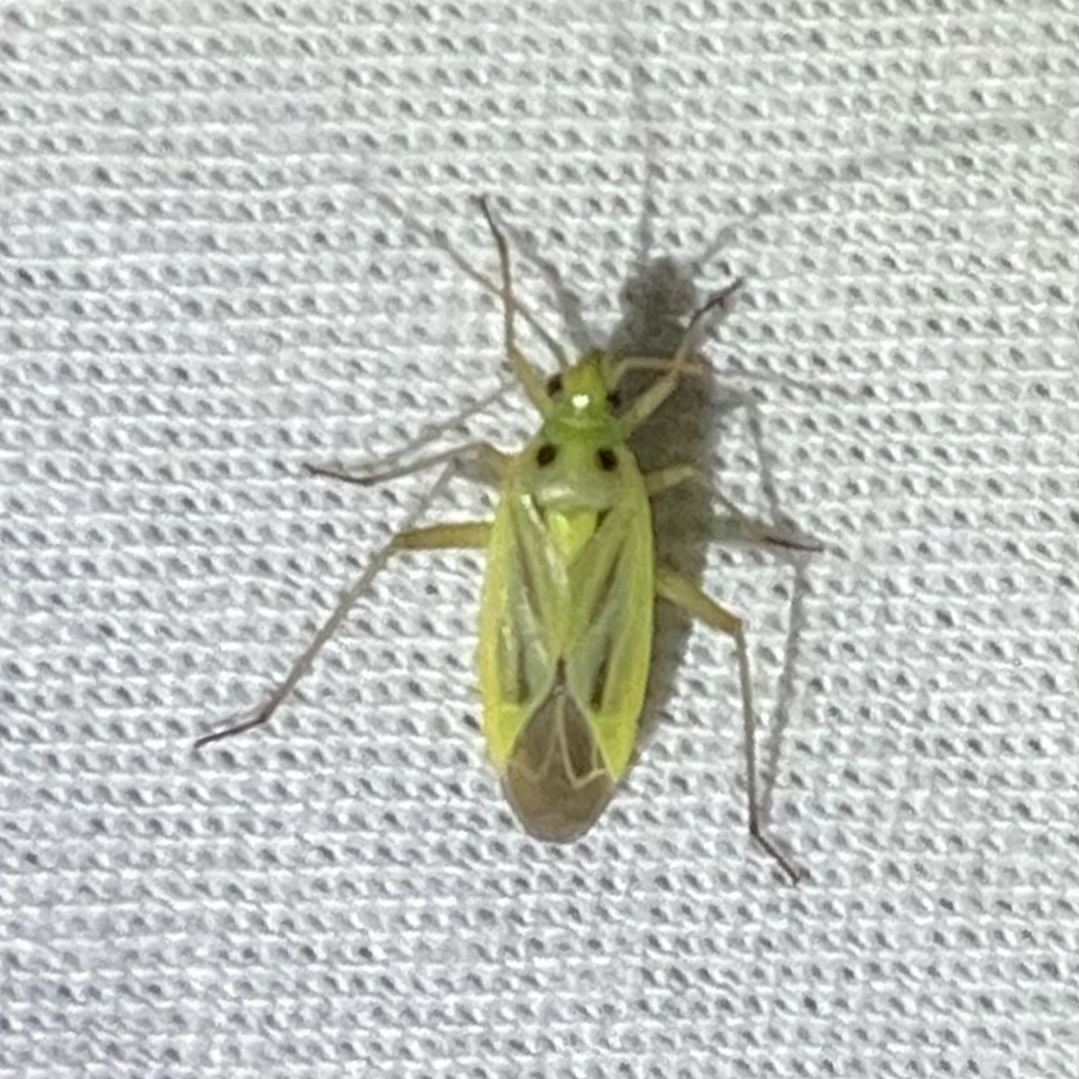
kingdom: Animalia
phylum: Arthropoda
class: Insecta
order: Hemiptera
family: Miridae
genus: Stenotus
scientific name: Stenotus binotatus
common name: Plant bug
